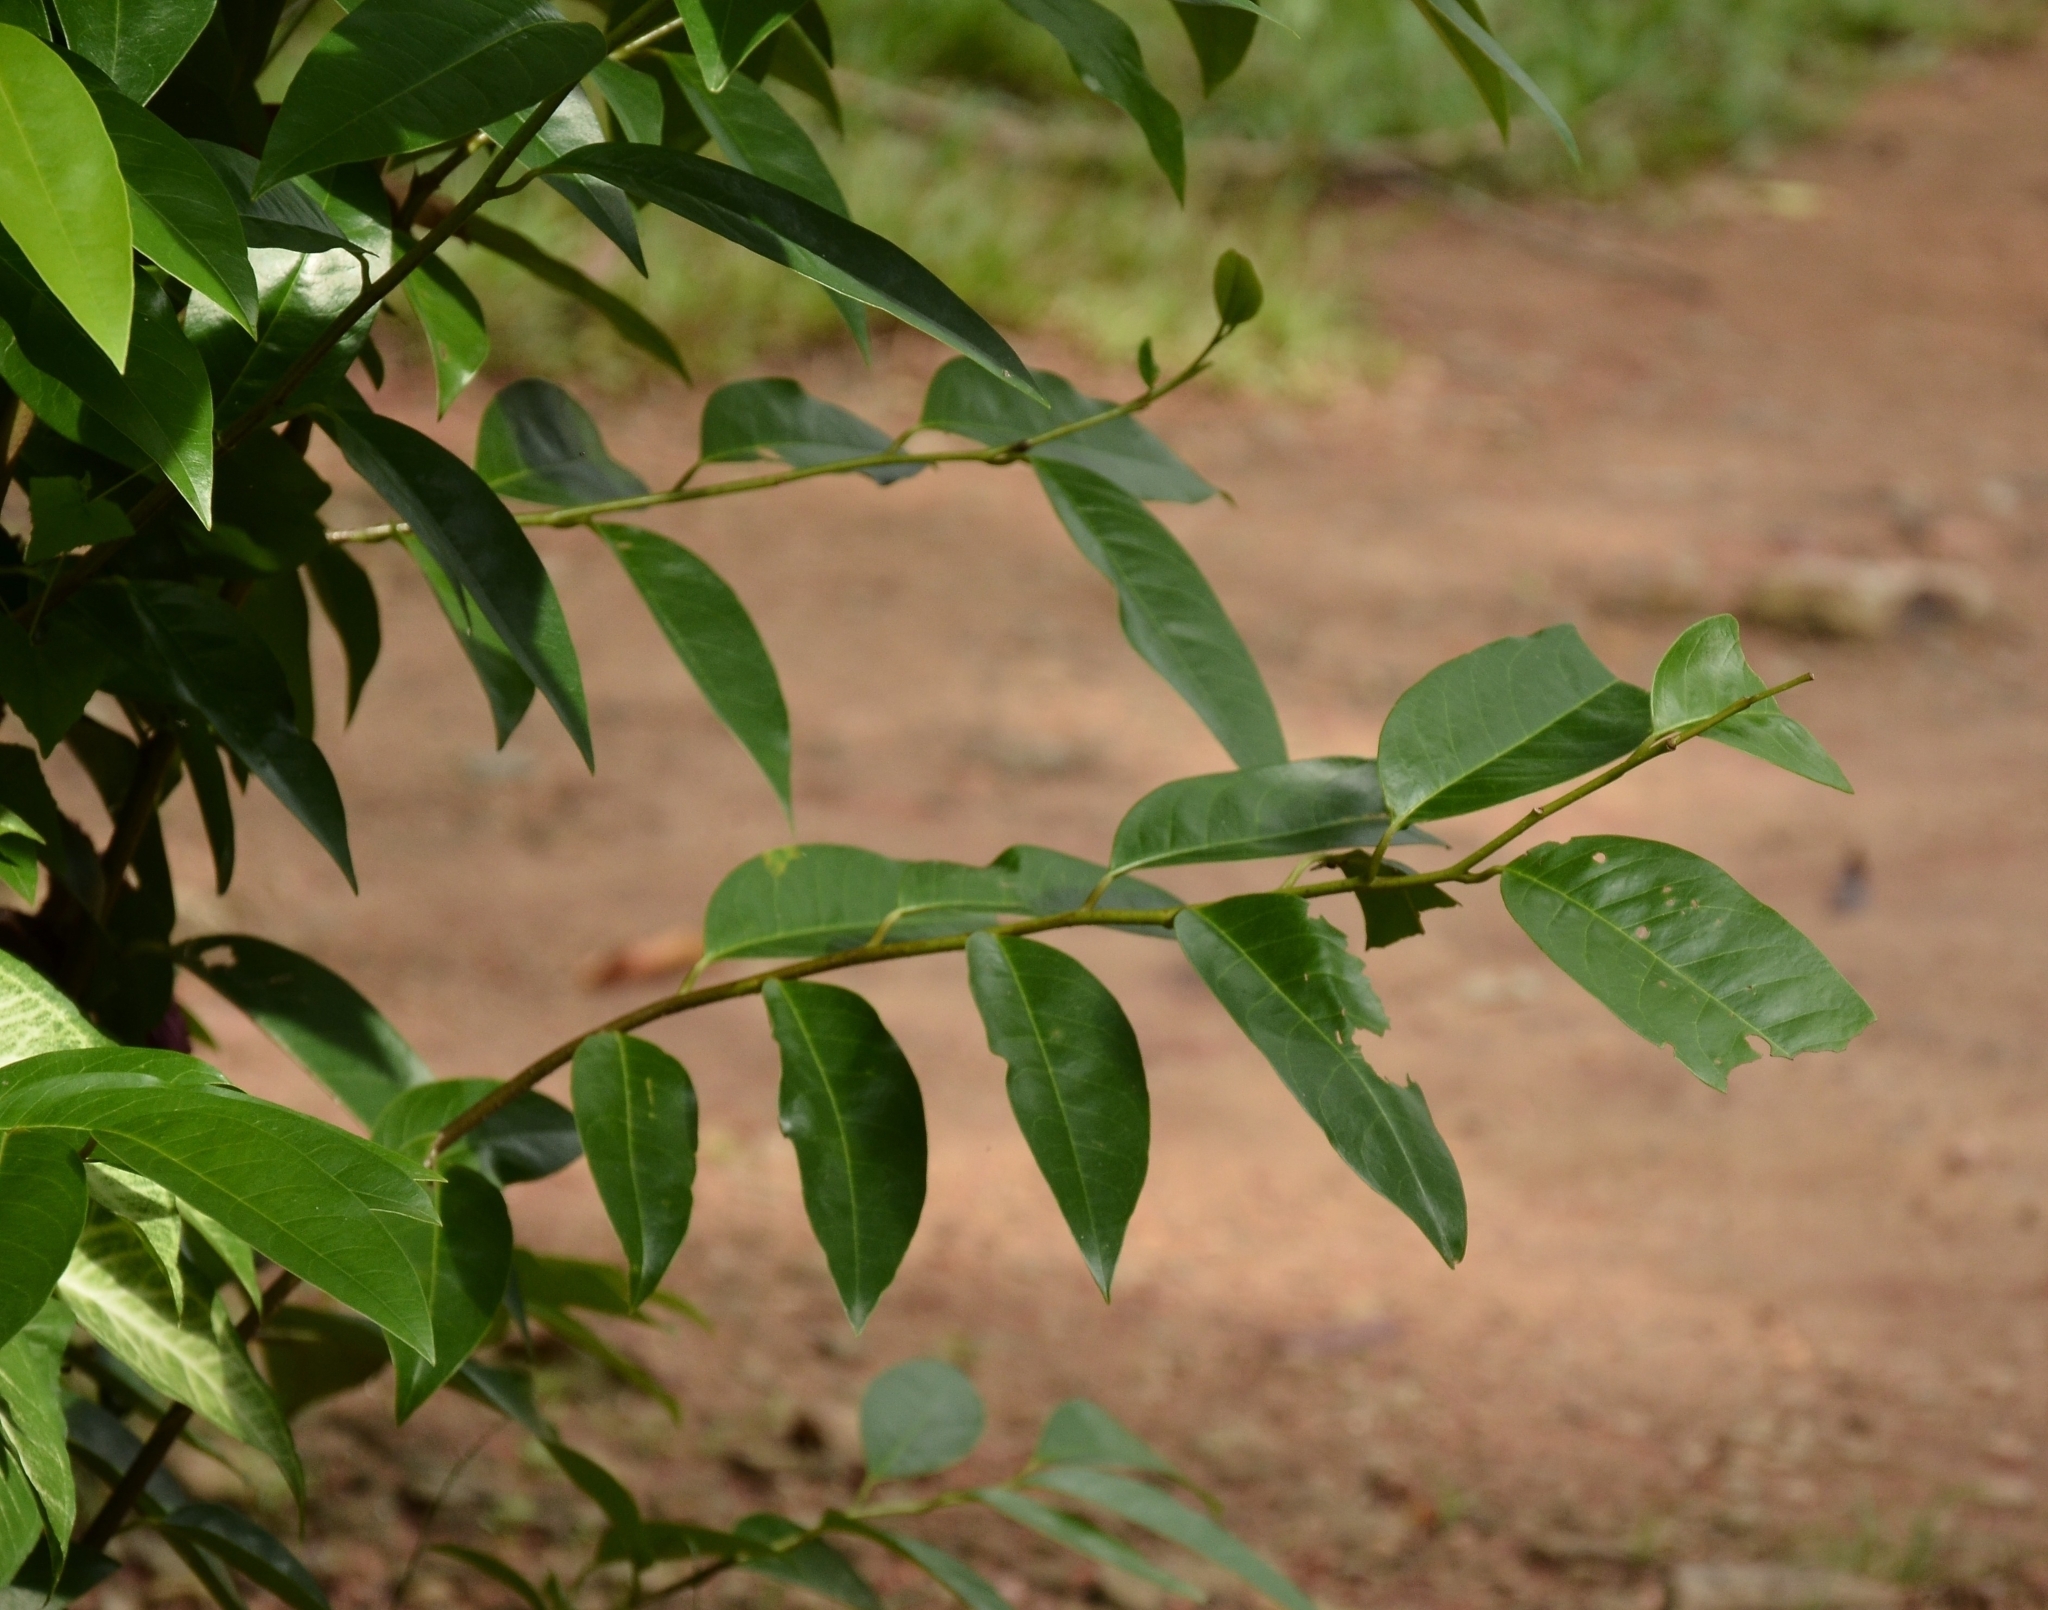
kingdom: Plantae
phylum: Tracheophyta
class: Magnoliopsida
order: Magnoliales
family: Annonaceae
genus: Annona
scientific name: Annona glabra
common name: Monkey apple
